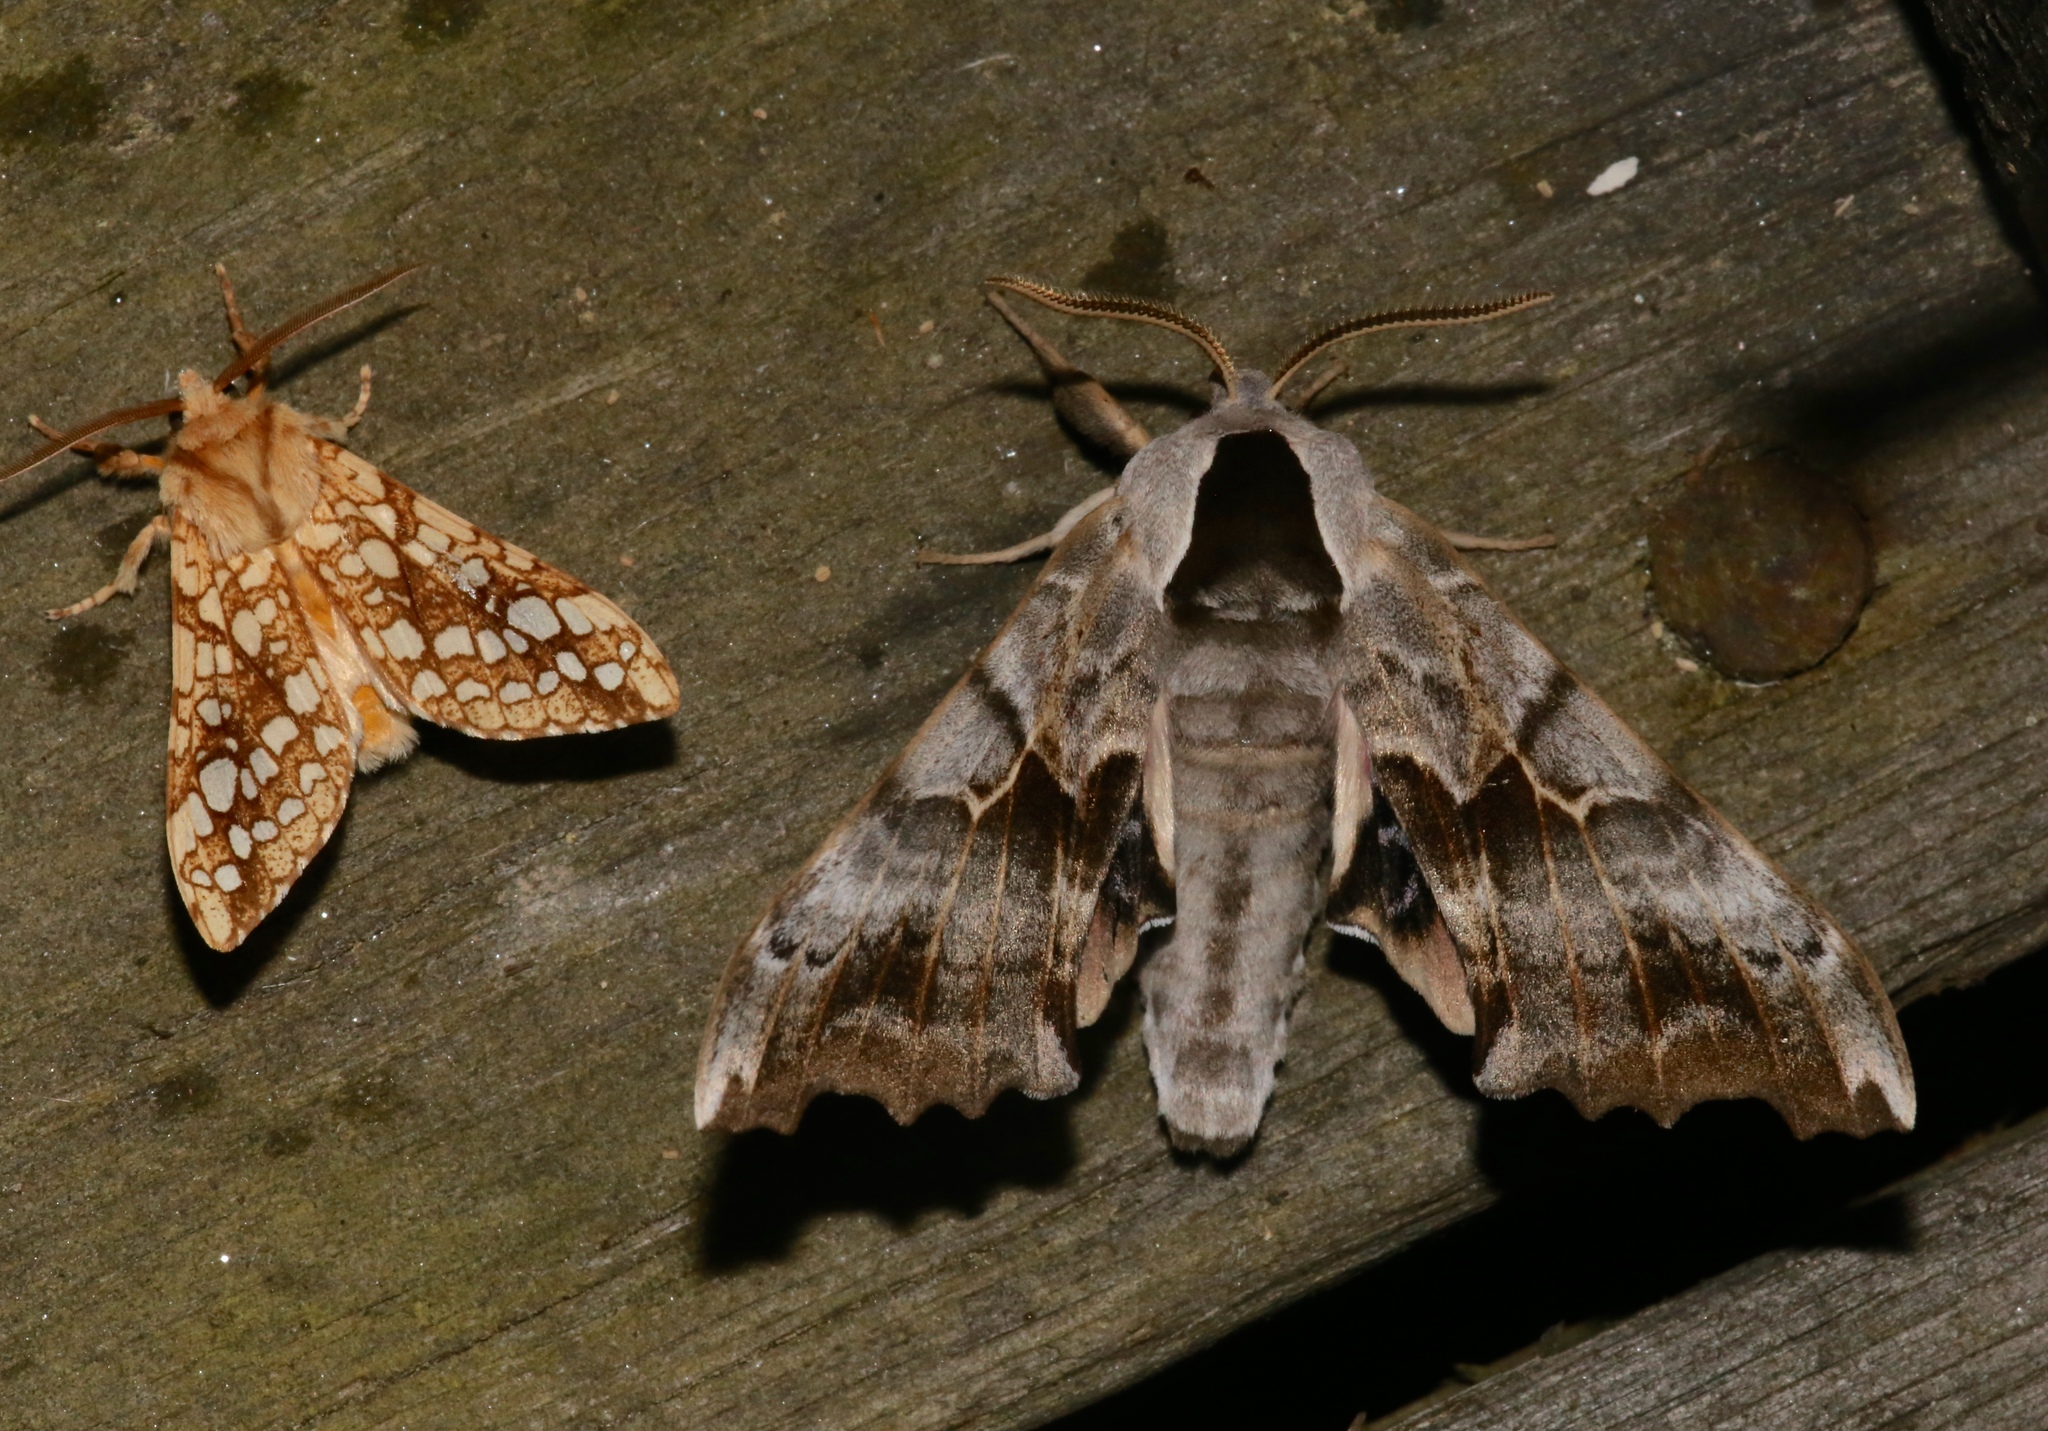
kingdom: Animalia
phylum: Arthropoda
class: Insecta
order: Lepidoptera
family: Sphingidae
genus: Smerinthus
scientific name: Smerinthus cerisyi
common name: Cerisy's sphinx moth
